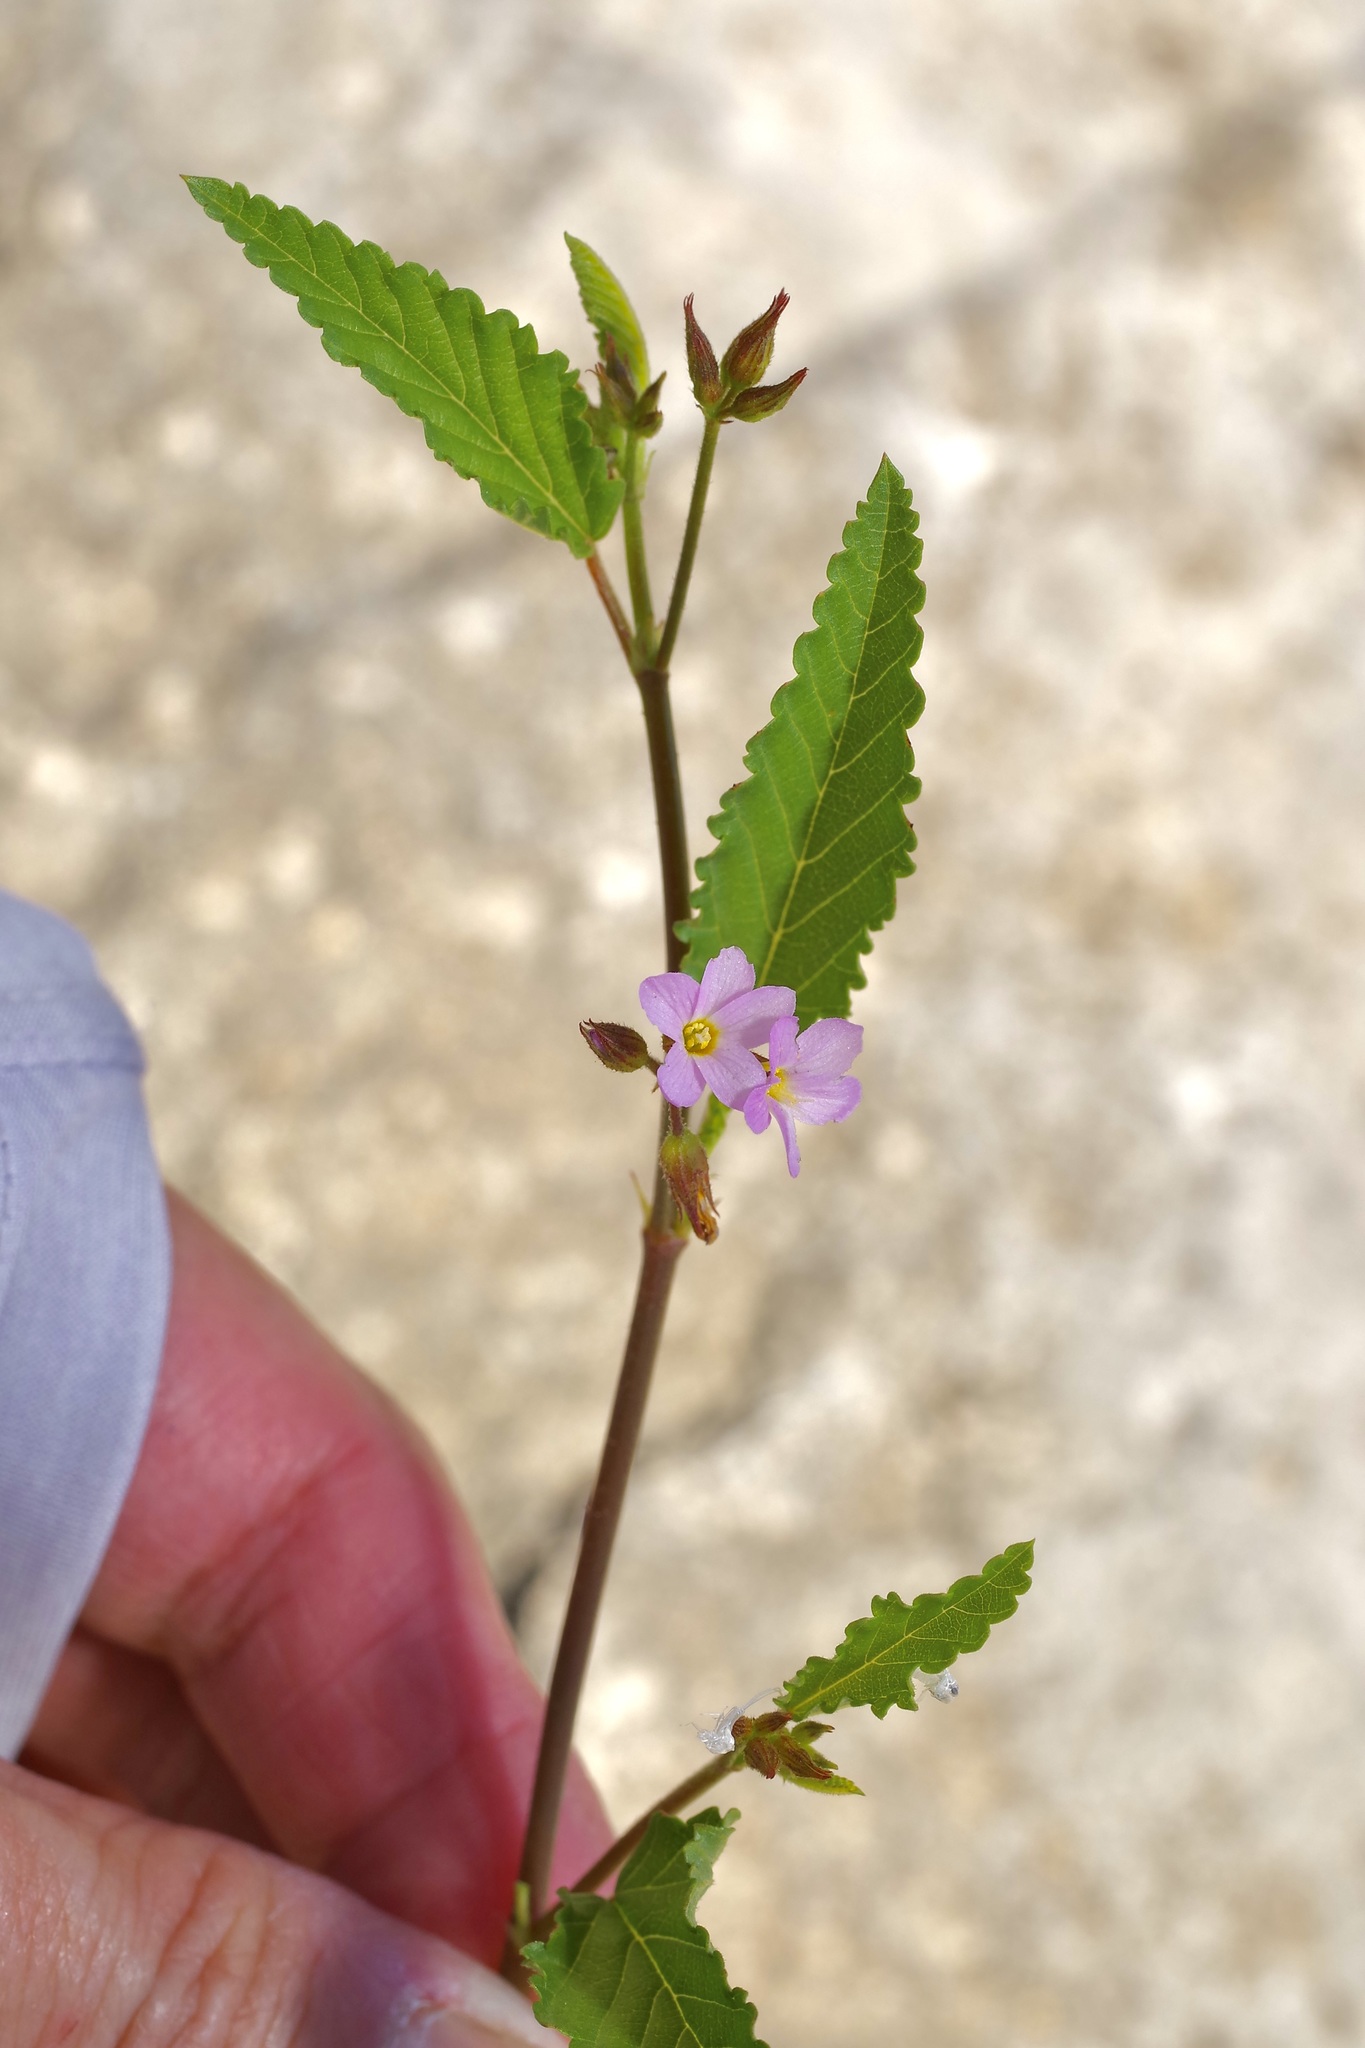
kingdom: Plantae
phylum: Tracheophyta
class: Magnoliopsida
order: Malvales
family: Malvaceae
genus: Melochia
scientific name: Melochia pyramidata
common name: Pyramidflower
